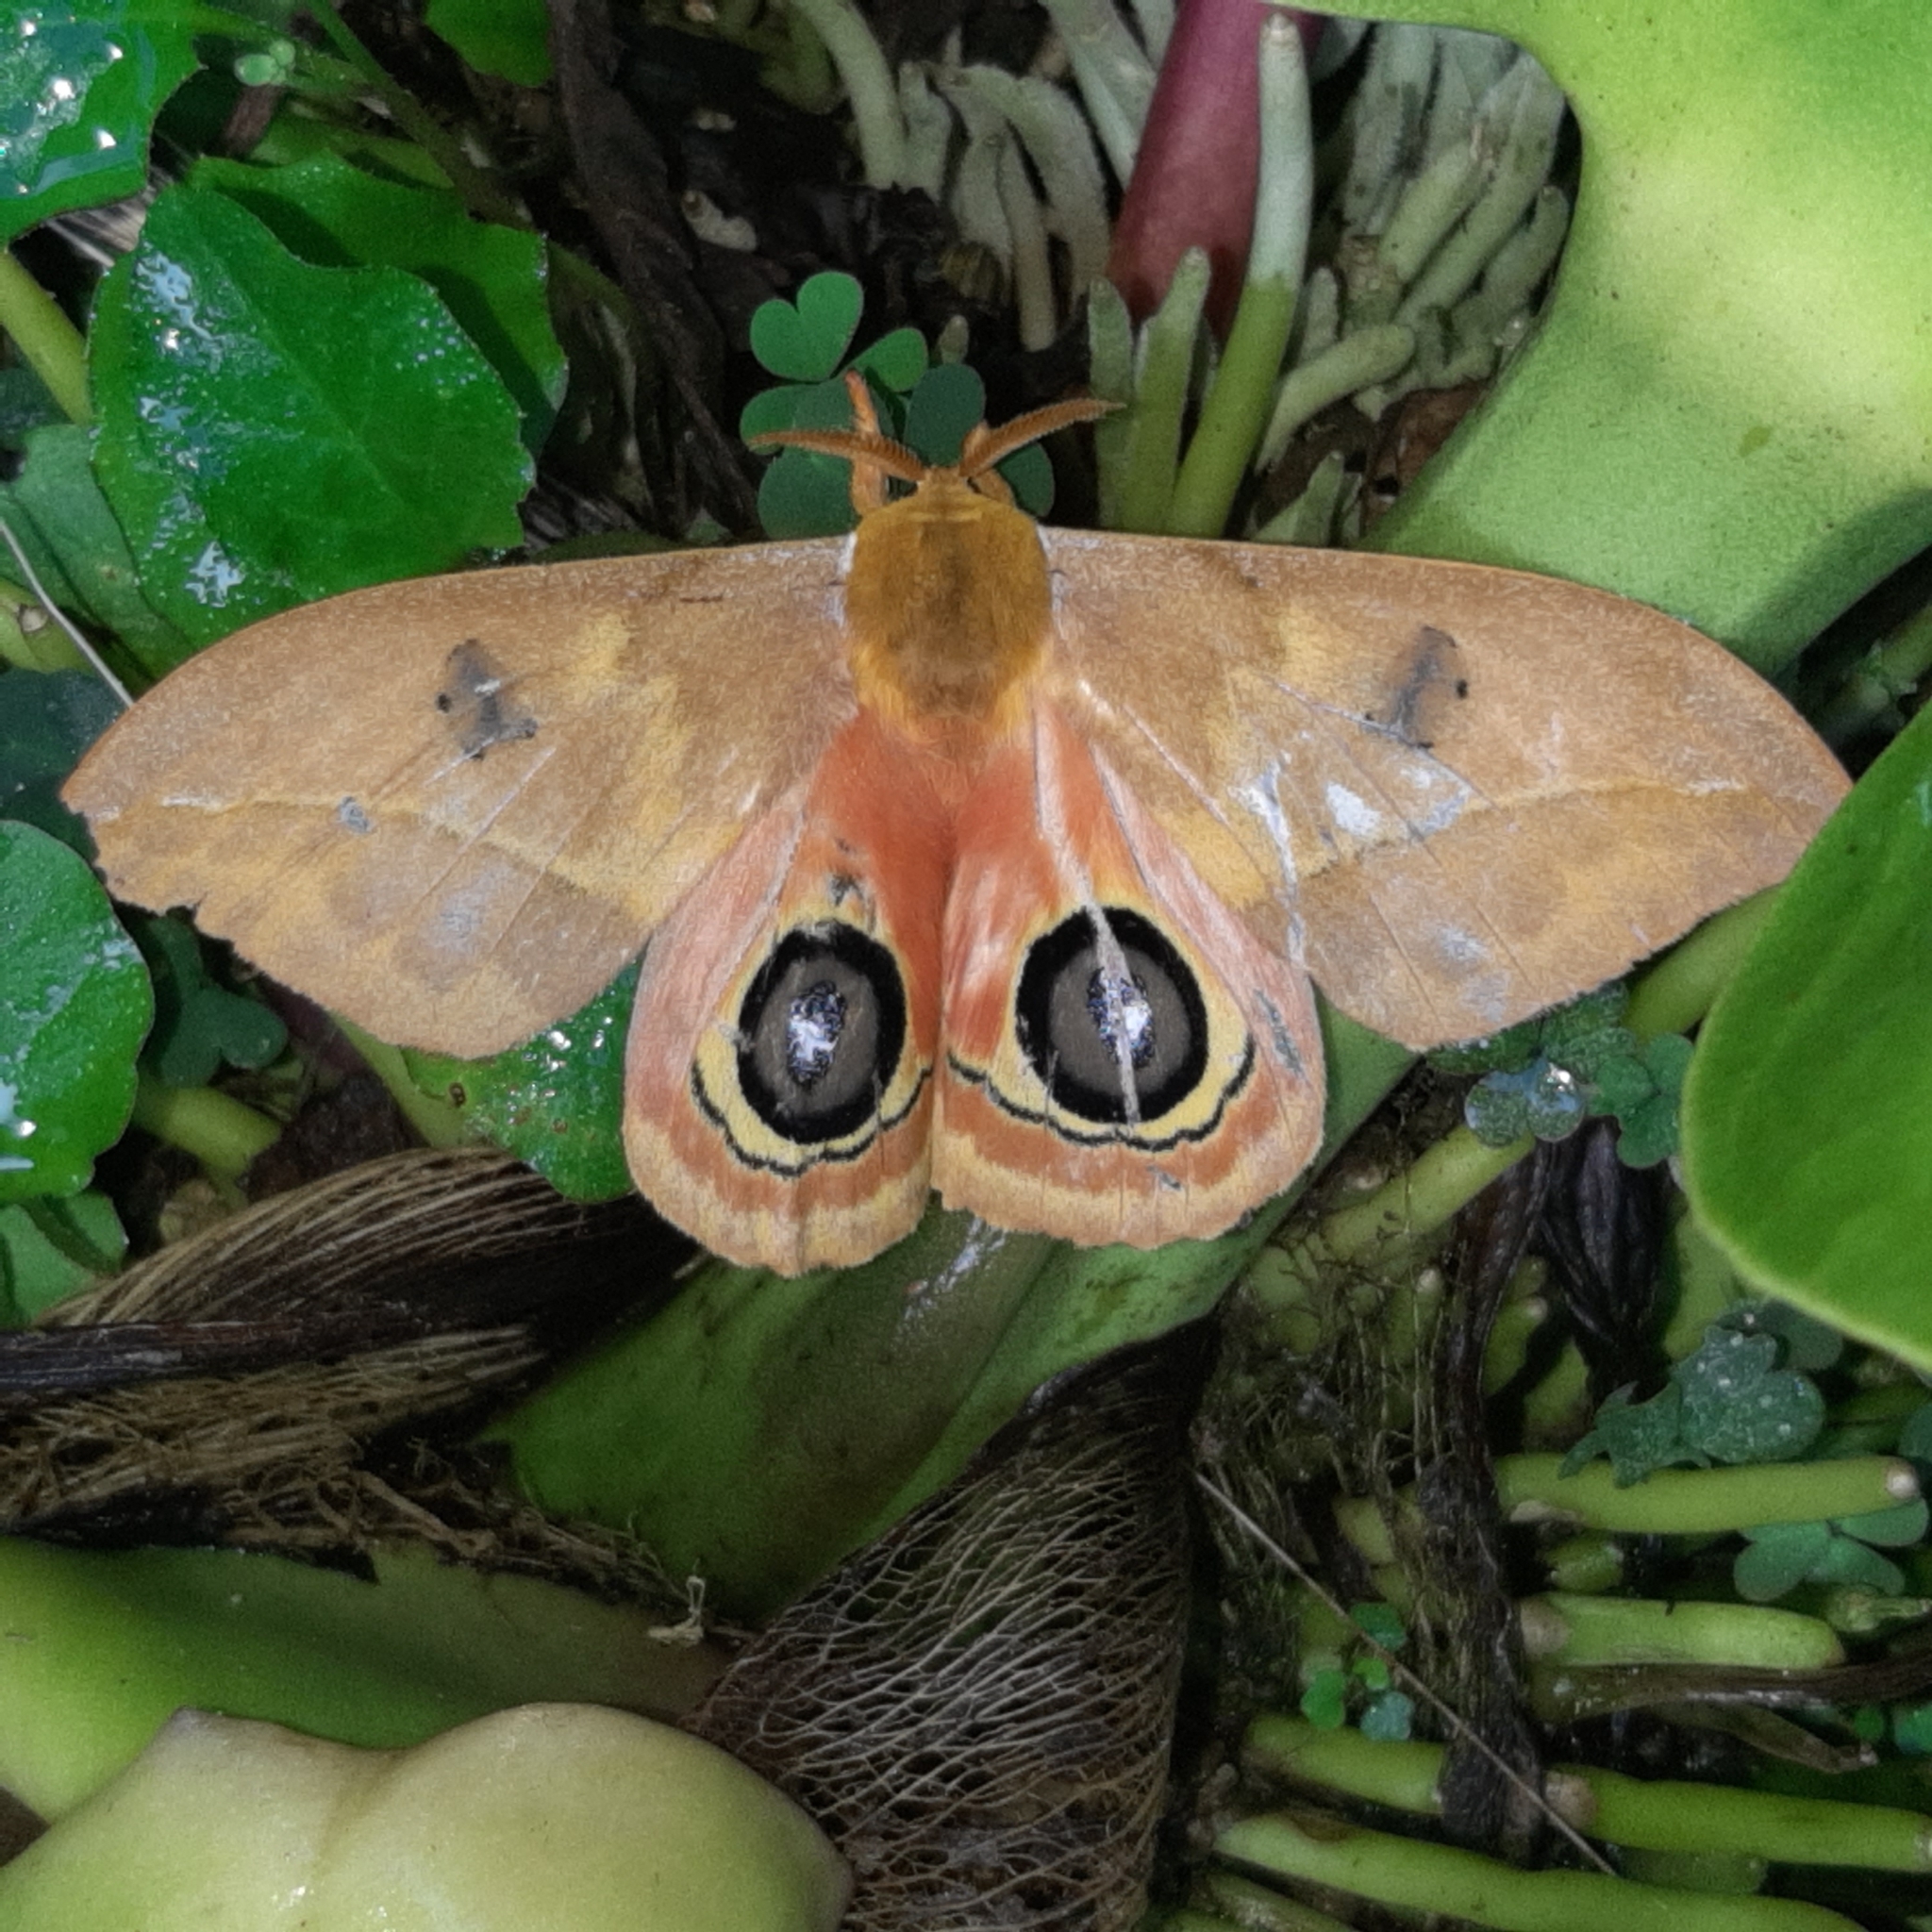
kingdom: Animalia
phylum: Arthropoda
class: Insecta
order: Lepidoptera
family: Saturniidae
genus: Automeris
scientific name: Automeris tridens
